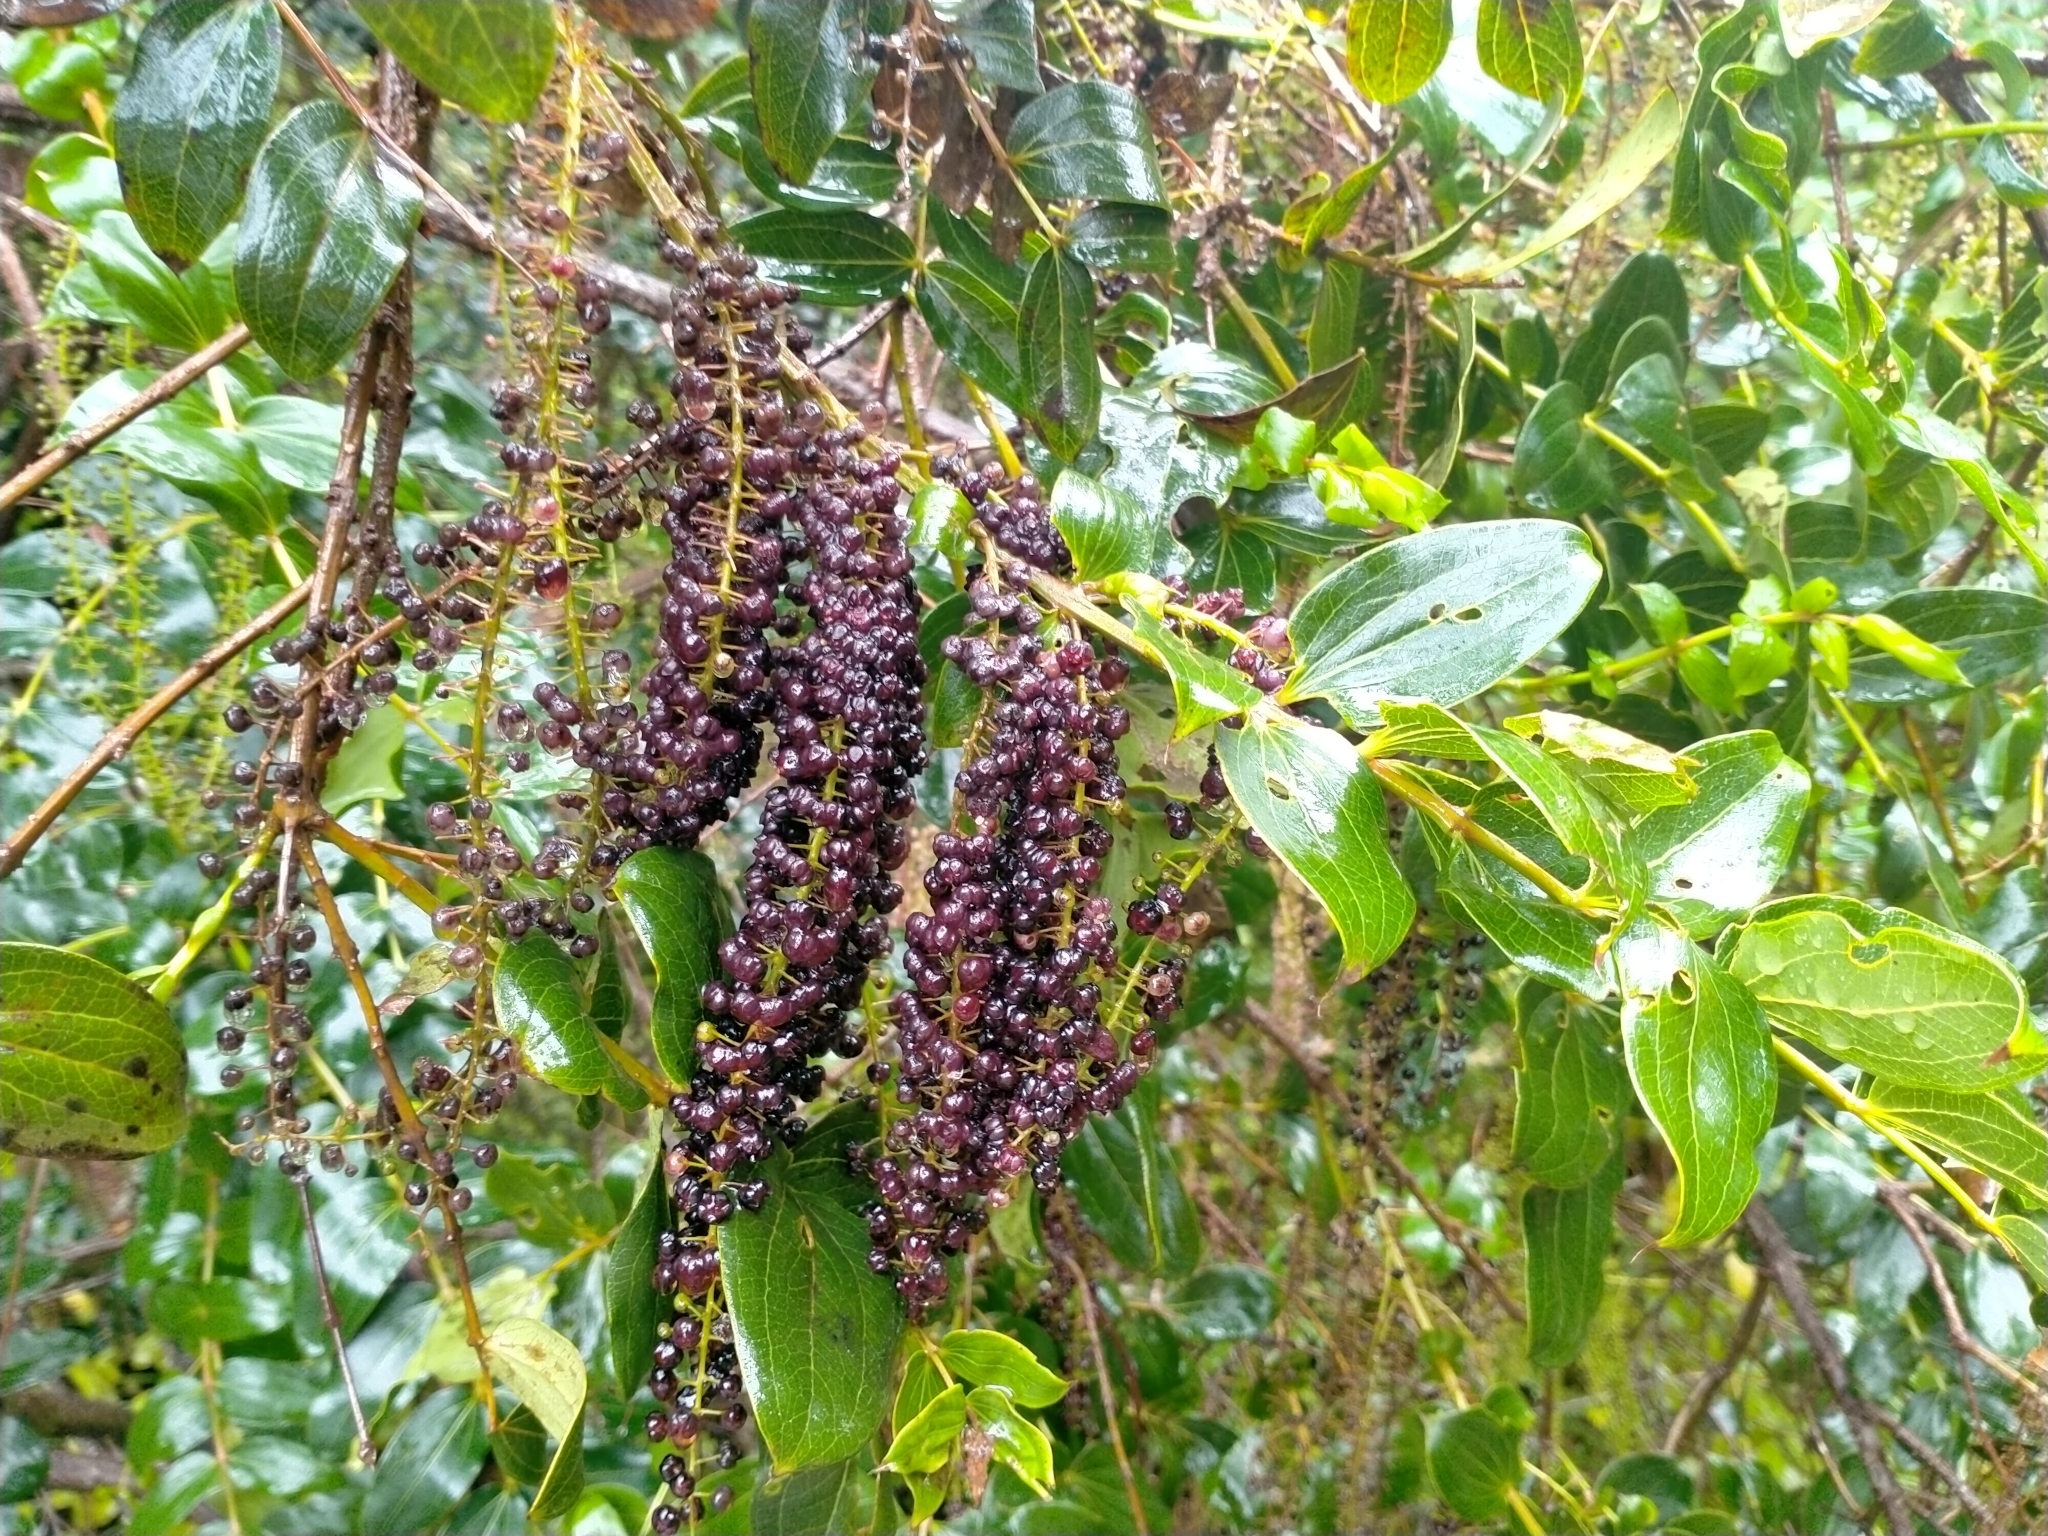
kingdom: Plantae
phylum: Tracheophyta
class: Magnoliopsida
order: Cucurbitales
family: Coriariaceae
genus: Coriaria
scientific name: Coriaria arborea
